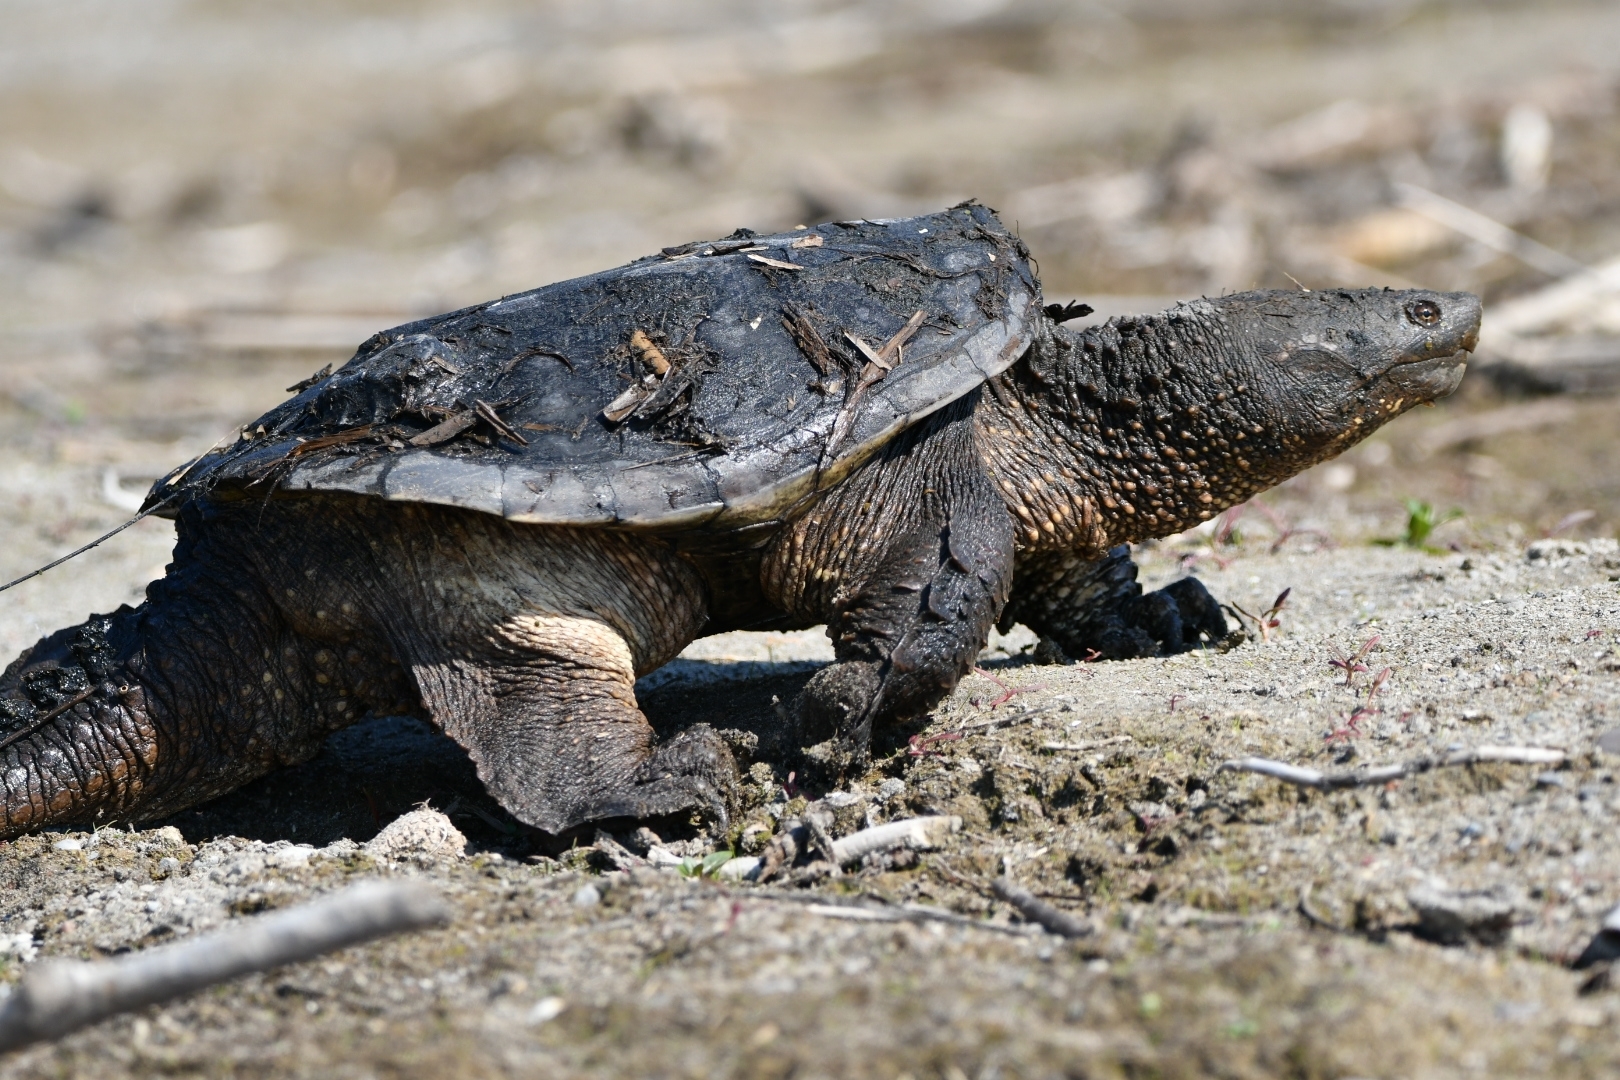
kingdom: Animalia
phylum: Chordata
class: Testudines
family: Chelydridae
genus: Chelydra
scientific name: Chelydra serpentina
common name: Common snapping turtle
